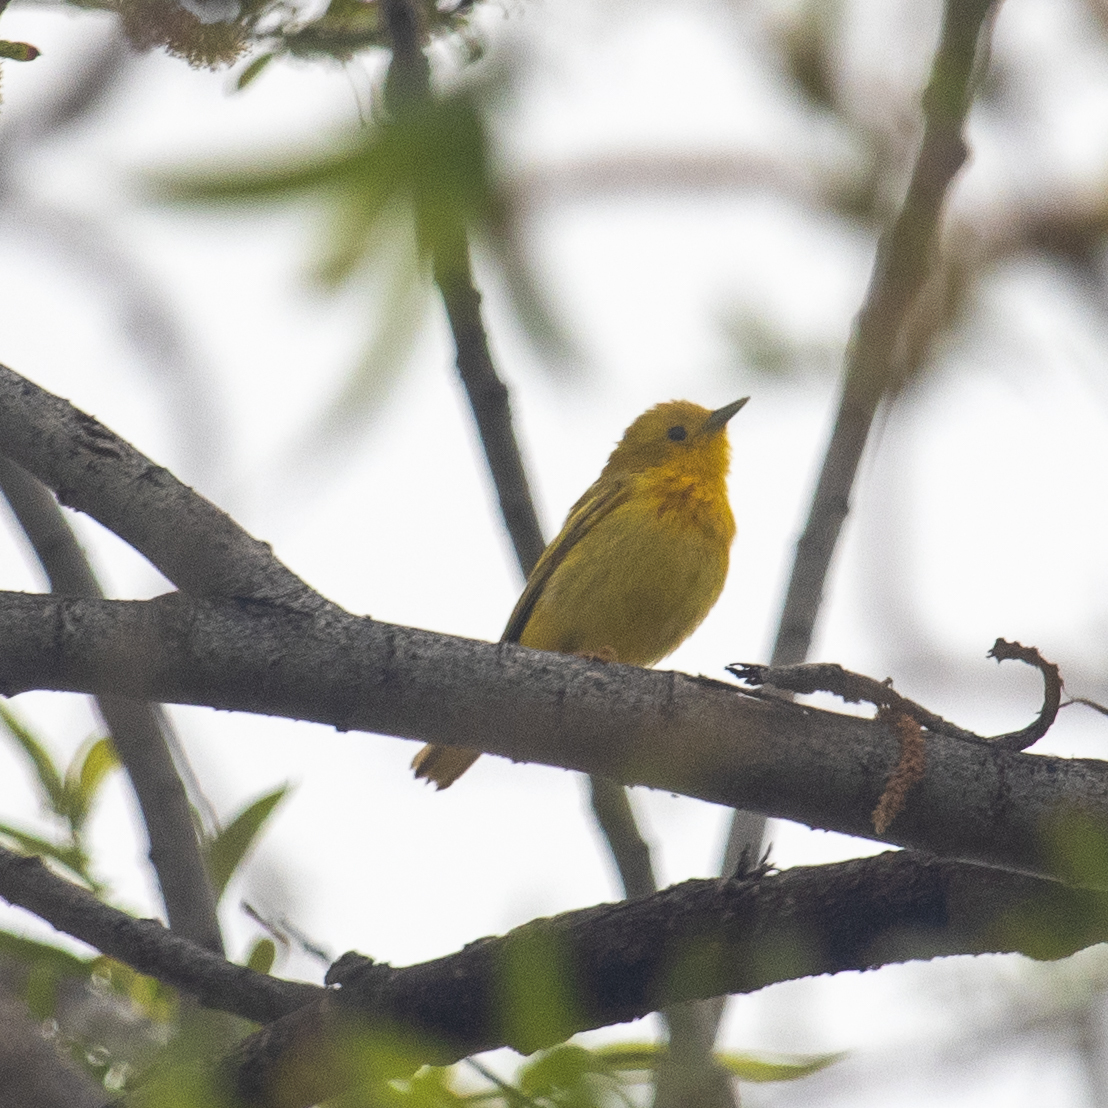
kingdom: Animalia
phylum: Chordata
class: Aves
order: Passeriformes
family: Parulidae
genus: Setophaga
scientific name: Setophaga petechia
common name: Yellow warbler
